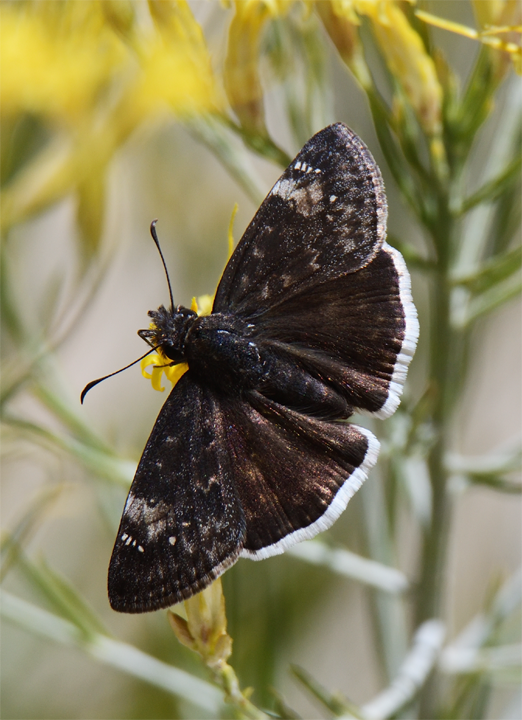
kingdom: Animalia
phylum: Arthropoda
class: Insecta
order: Lepidoptera
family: Hesperiidae
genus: Erynnis
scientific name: Erynnis funeralis
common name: Funereal duskywing
